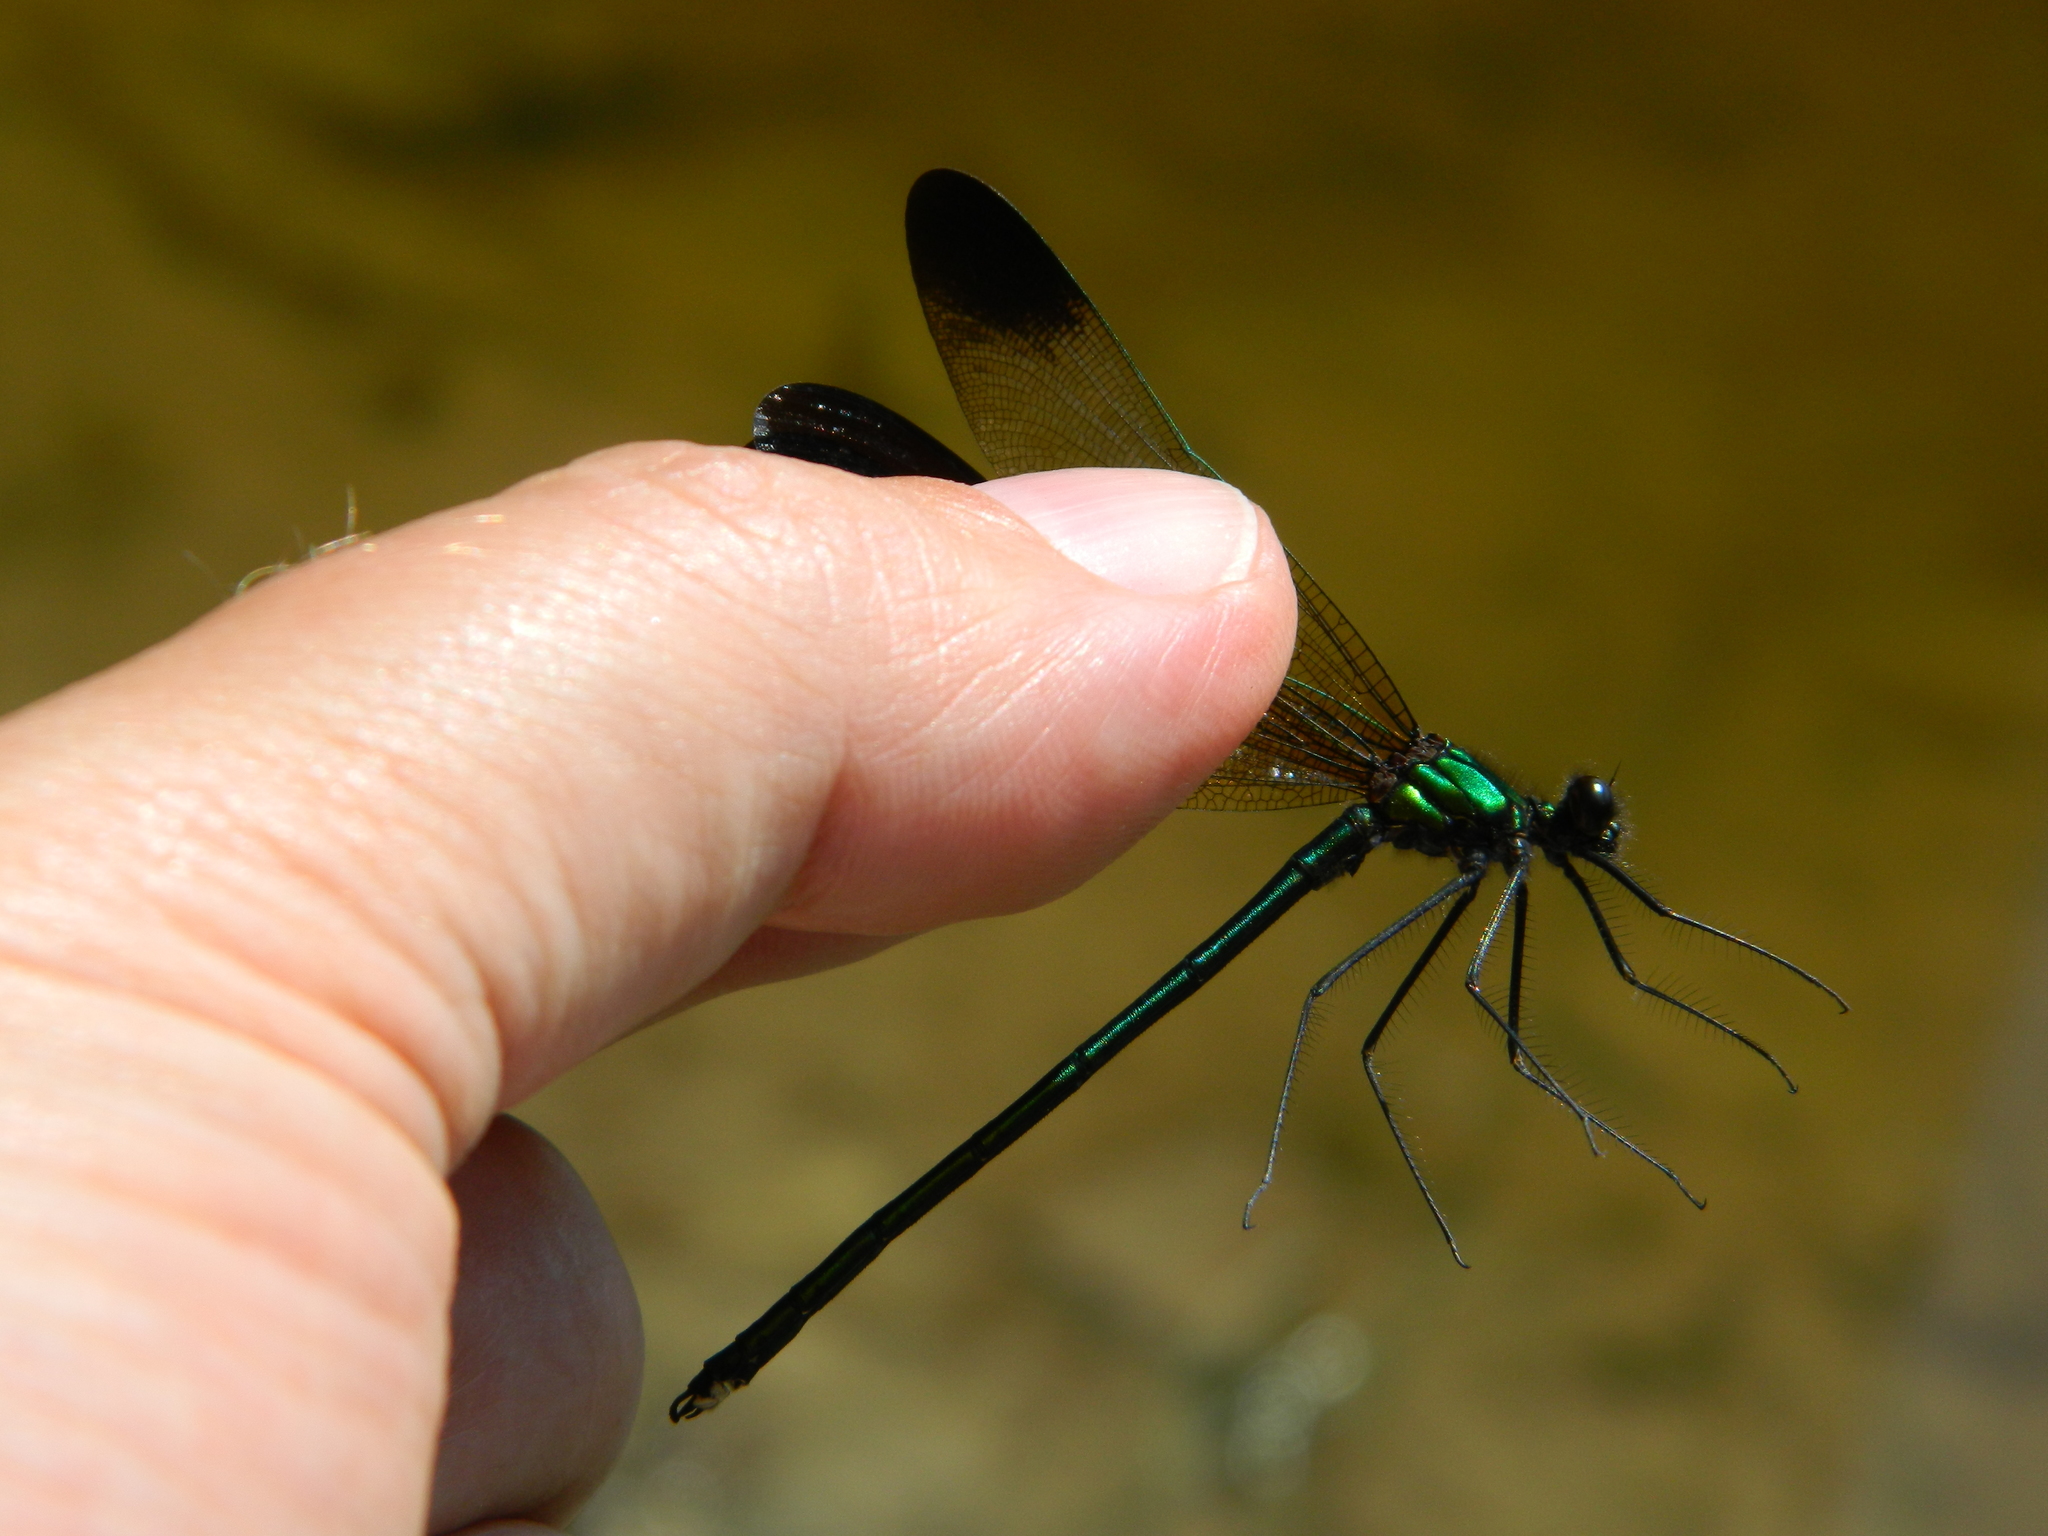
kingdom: Animalia
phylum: Arthropoda
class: Insecta
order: Odonata
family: Calopterygidae
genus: Calopteryx
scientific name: Calopteryx aequabilis
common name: River jewelwing
